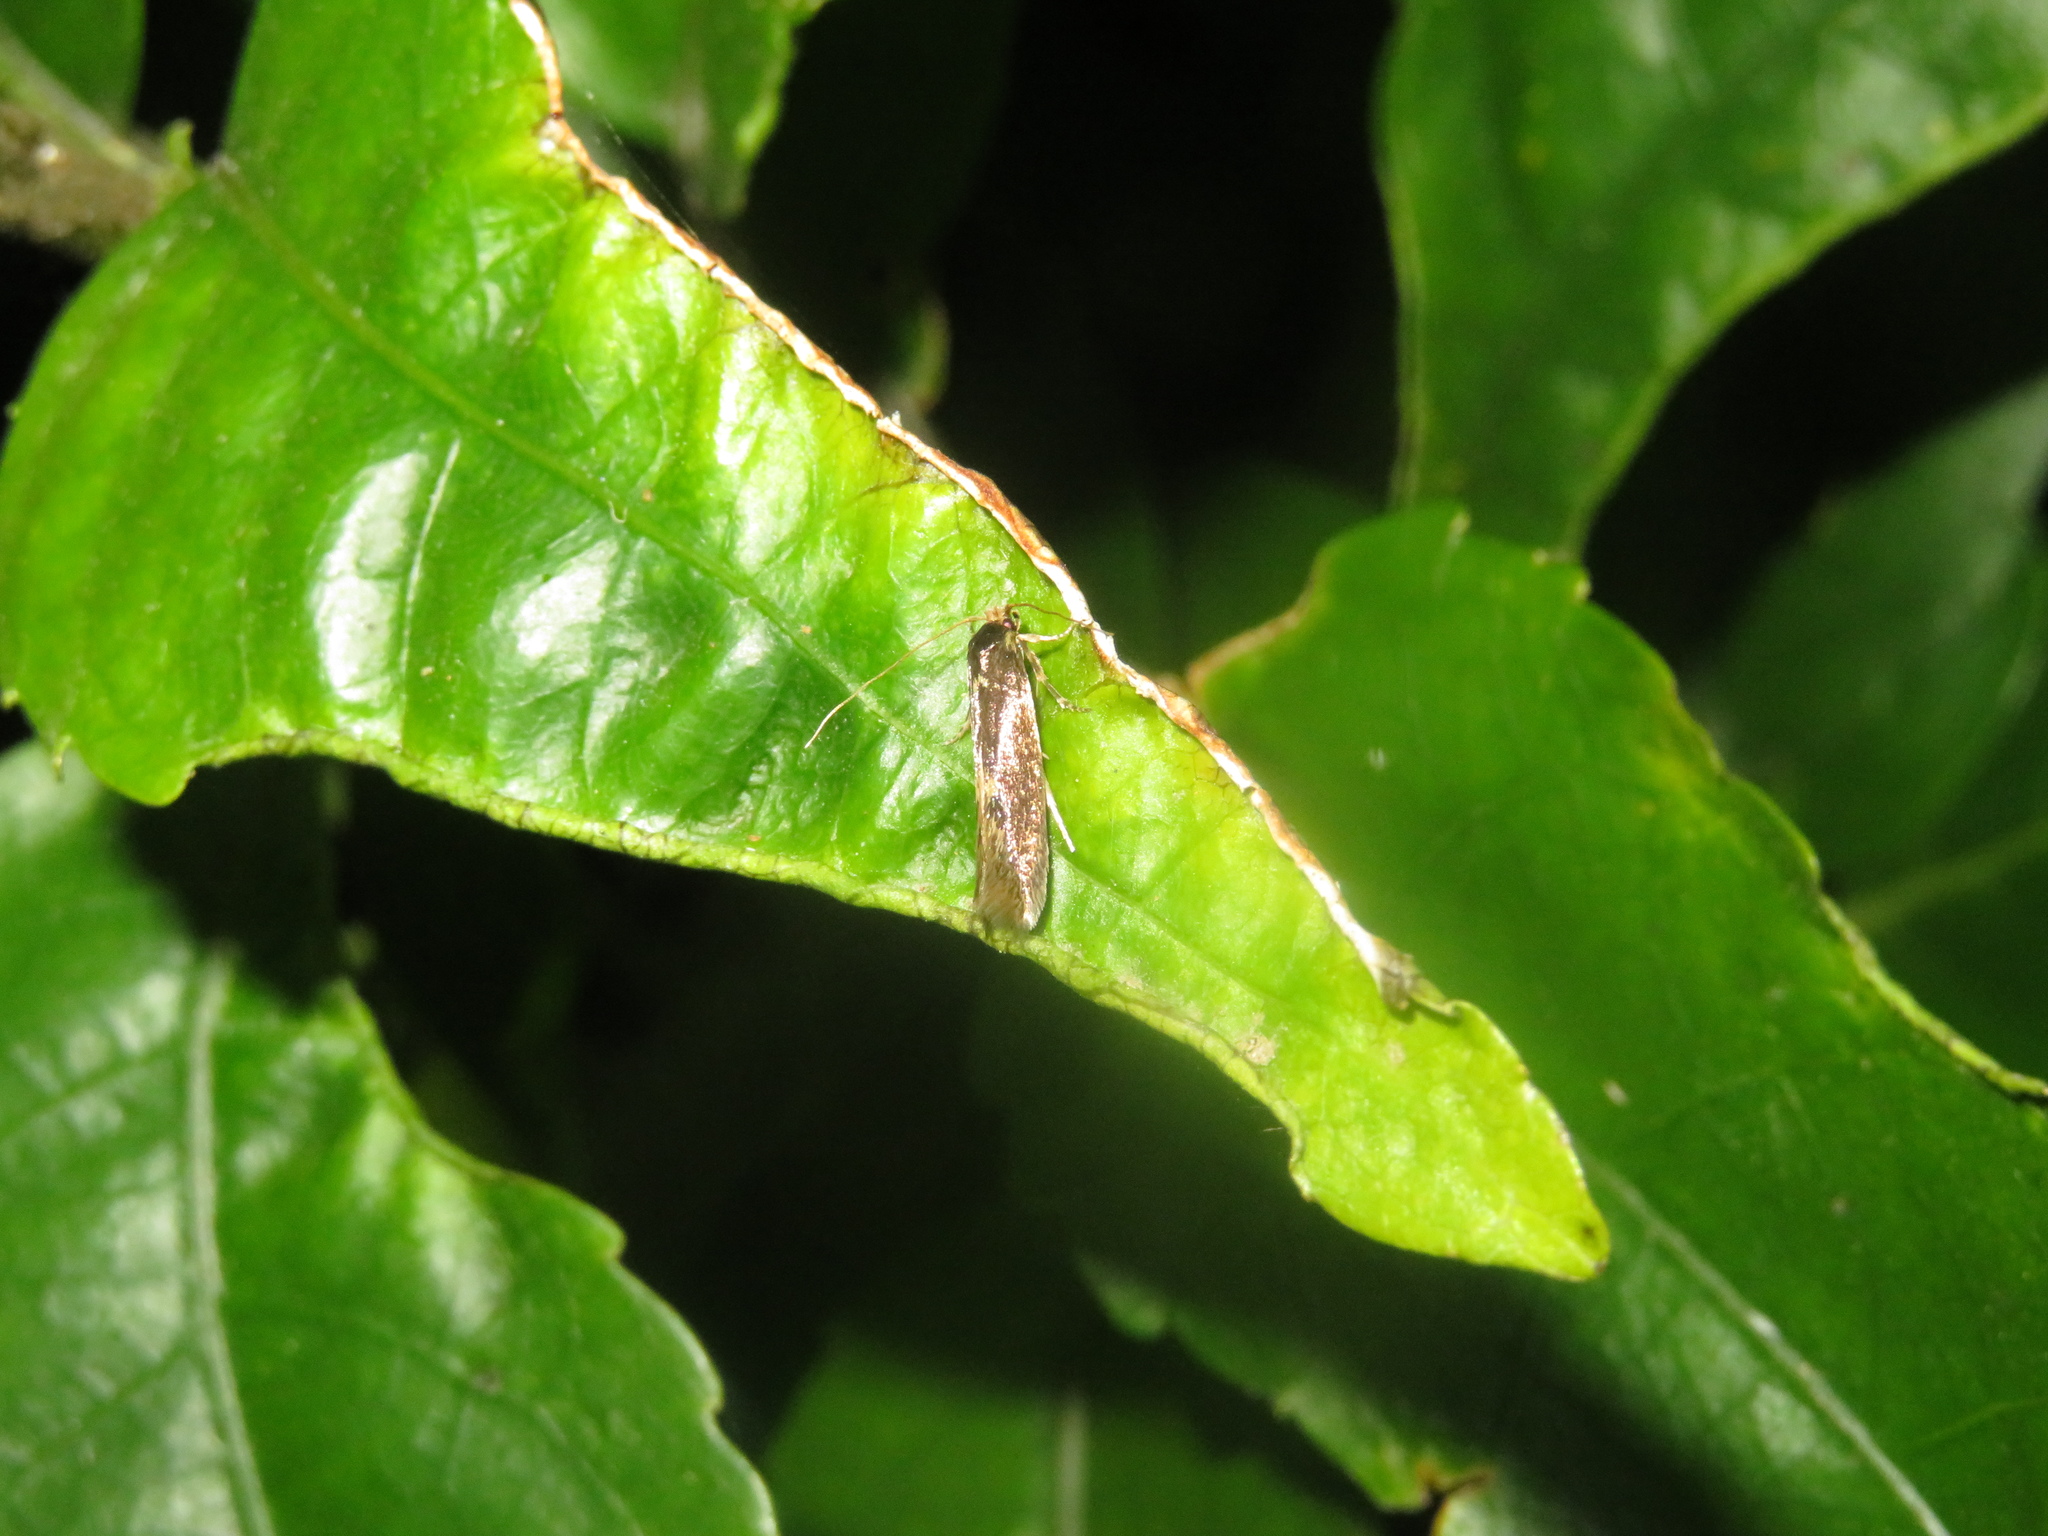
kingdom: Animalia
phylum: Arthropoda
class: Insecta
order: Lepidoptera
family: Tineidae
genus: Opogona
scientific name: Opogona omoscopa
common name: Moth
